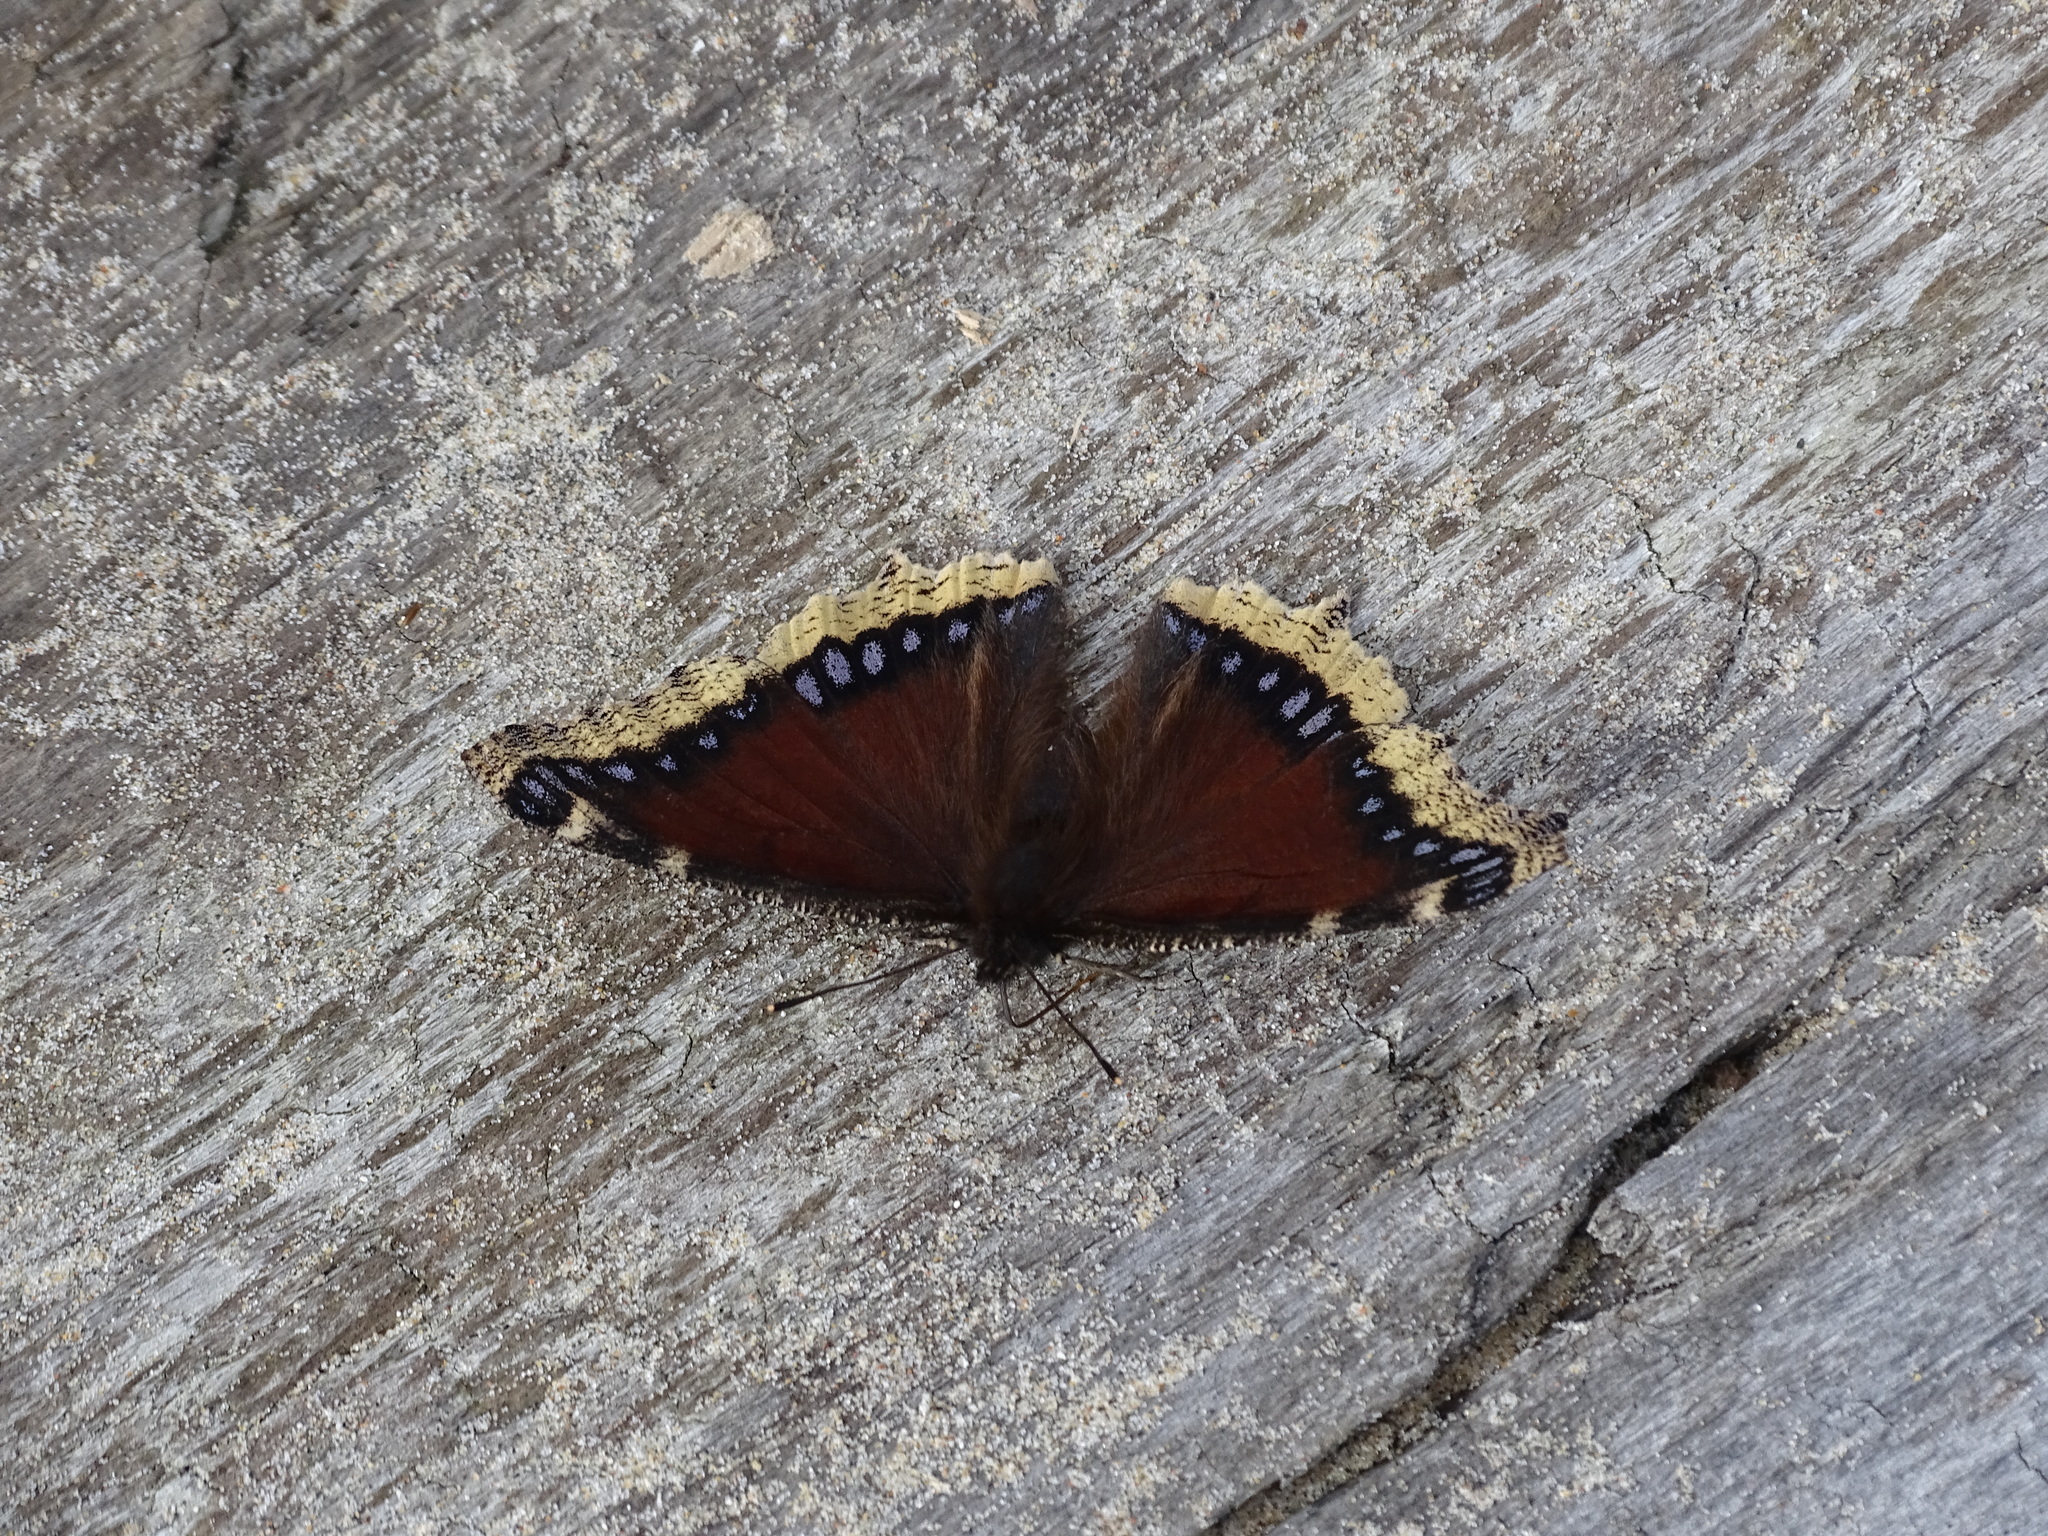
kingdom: Animalia
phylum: Arthropoda
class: Insecta
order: Lepidoptera
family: Nymphalidae
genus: Nymphalis
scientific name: Nymphalis antiopa
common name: Camberwell beauty
